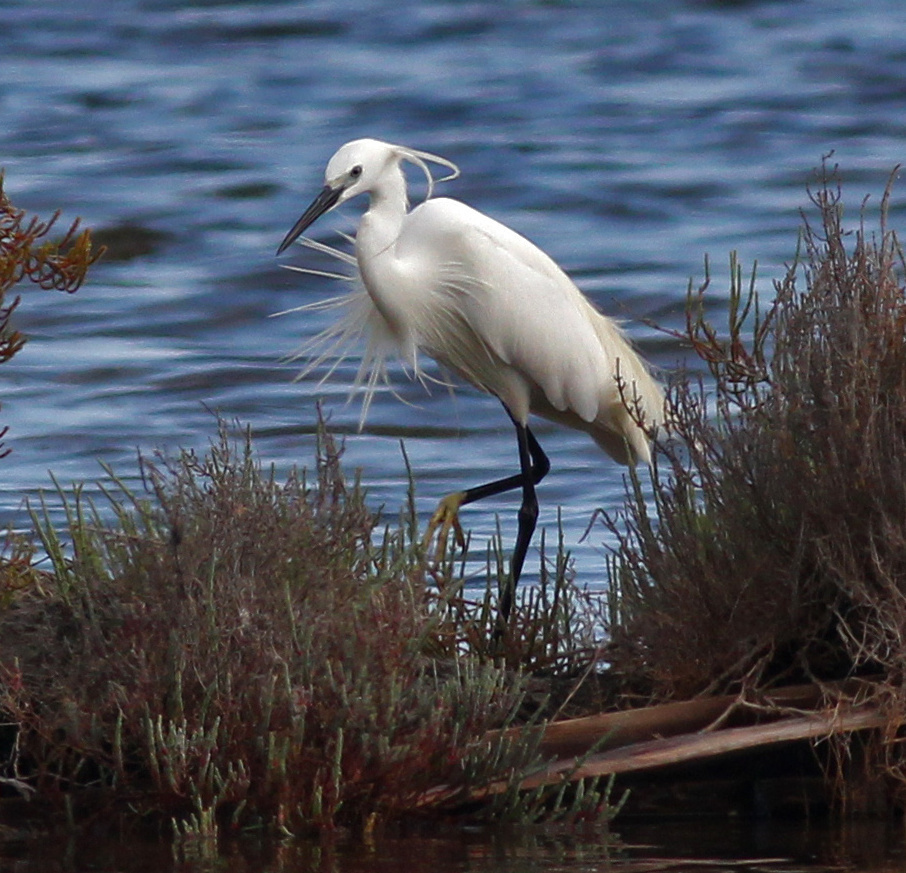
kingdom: Animalia
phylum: Chordata
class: Aves
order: Pelecaniformes
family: Ardeidae
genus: Egretta
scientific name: Egretta garzetta
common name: Little egret
